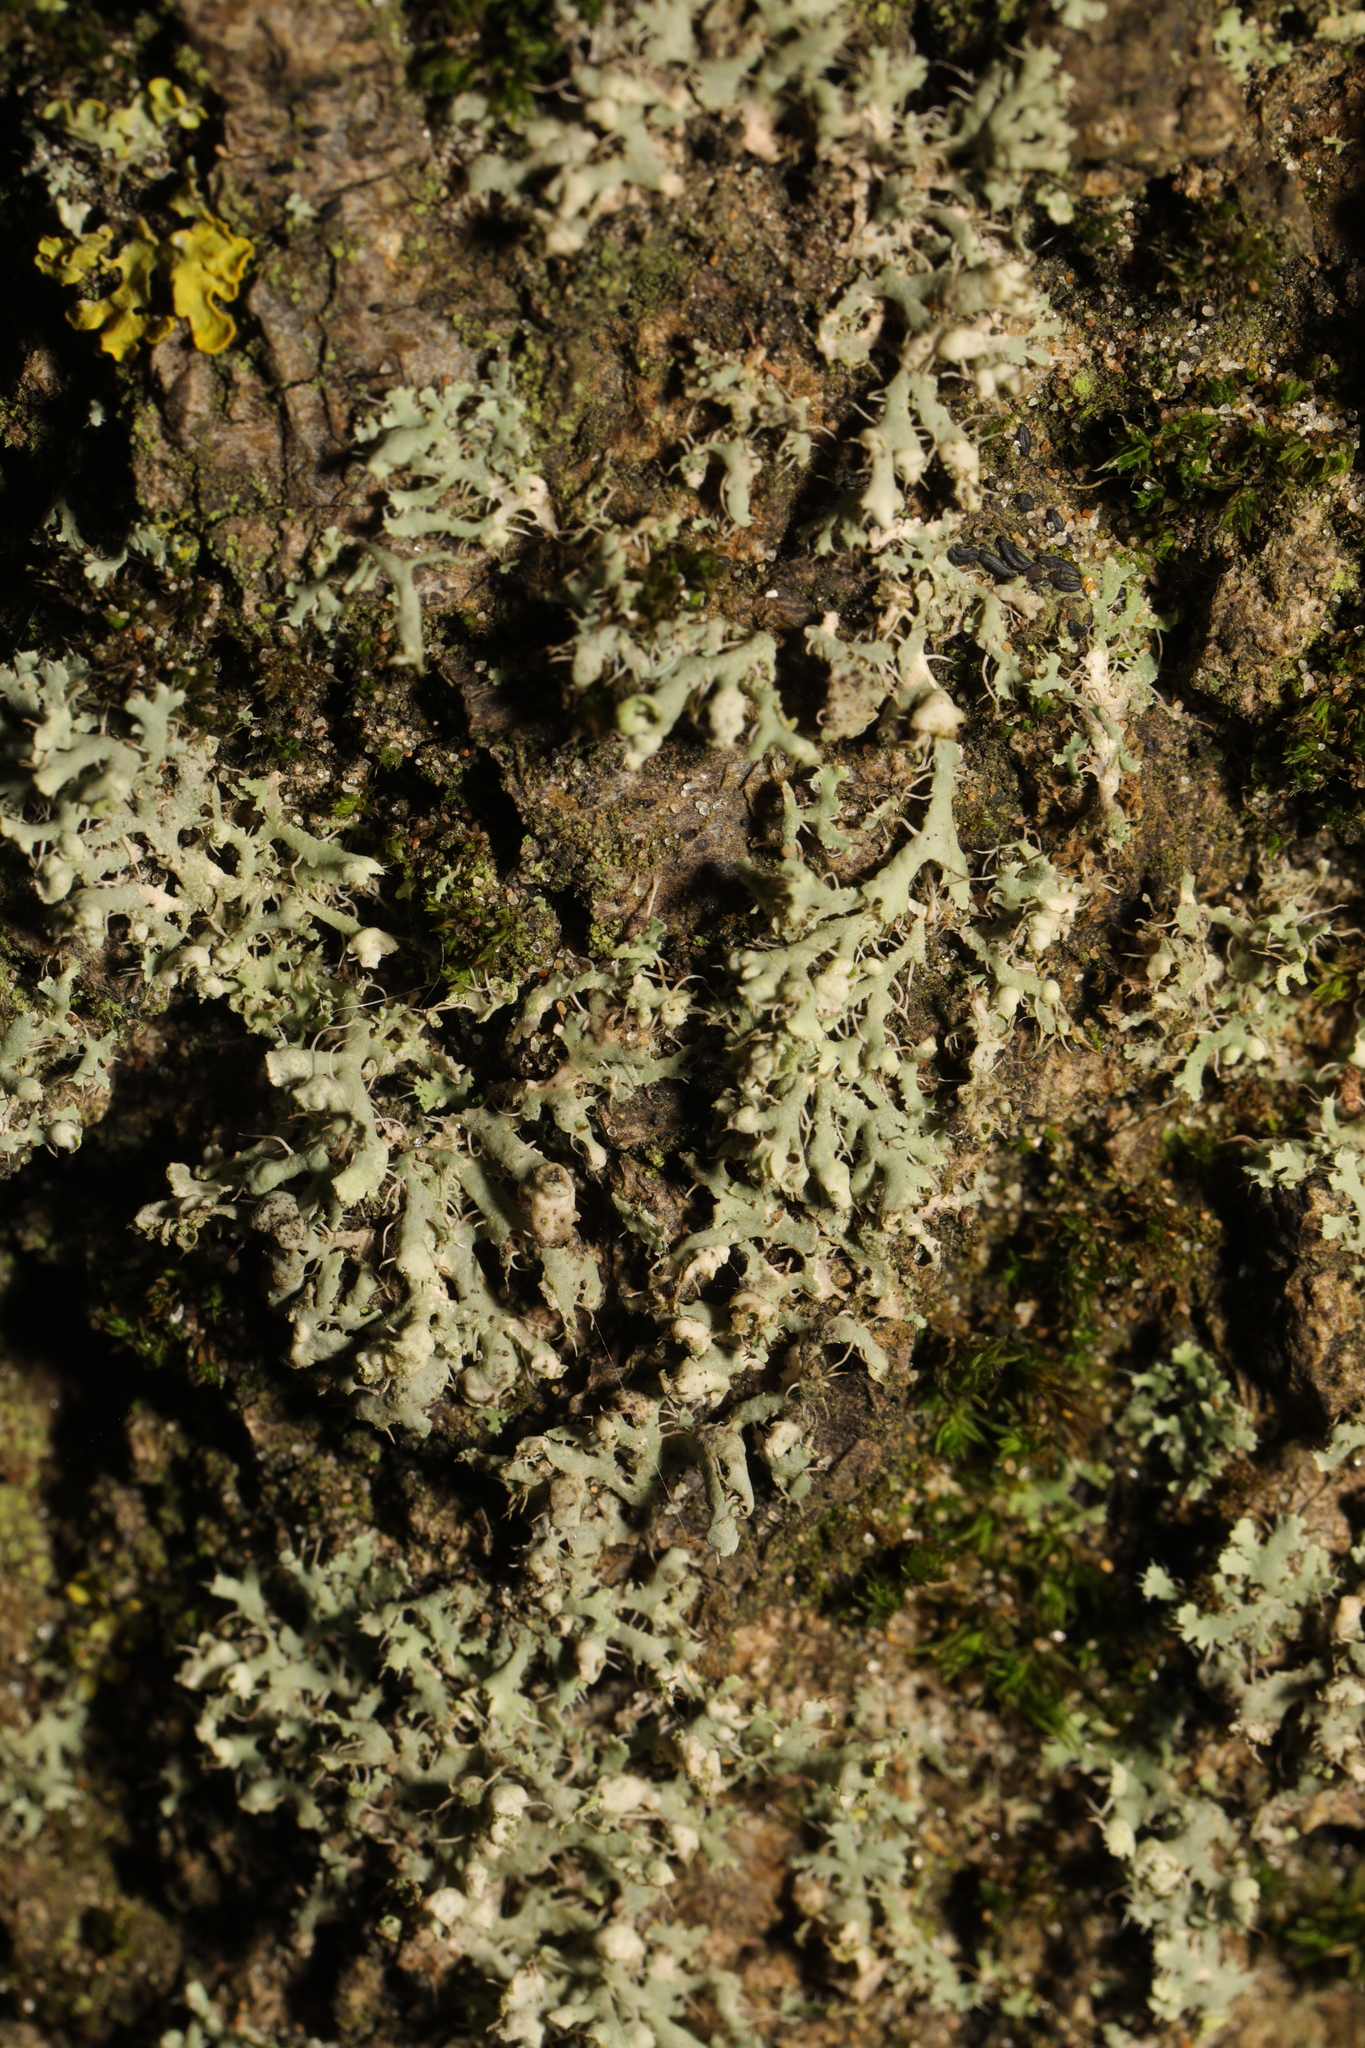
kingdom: Fungi
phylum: Ascomycota
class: Lecanoromycetes
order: Caliciales
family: Physciaceae
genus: Physcia
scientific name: Physcia adscendens
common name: Hooded rosette lichen
